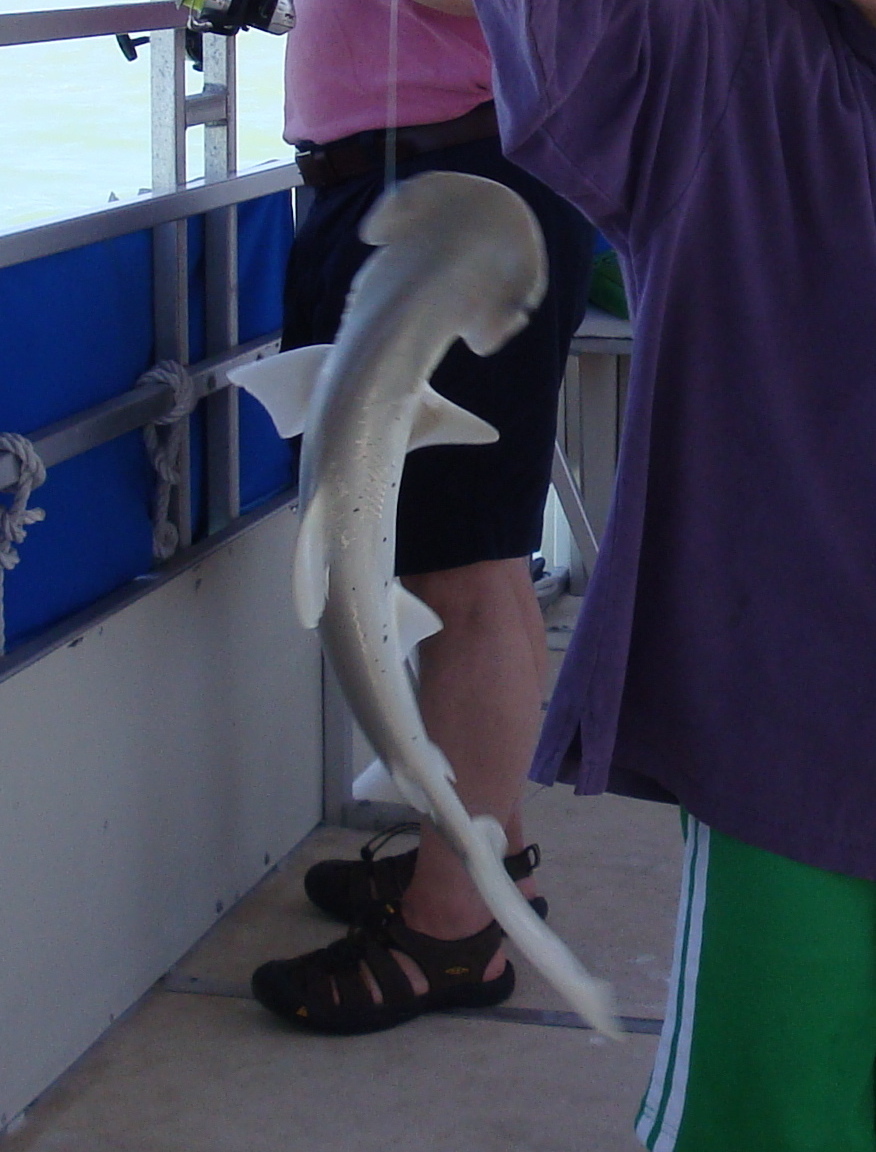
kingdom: Animalia
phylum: Chordata
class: Elasmobranchii
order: Carcharhiniformes
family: Sphyrnidae
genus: Sphyrna
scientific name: Sphyrna tiburo
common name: Bonnethead
